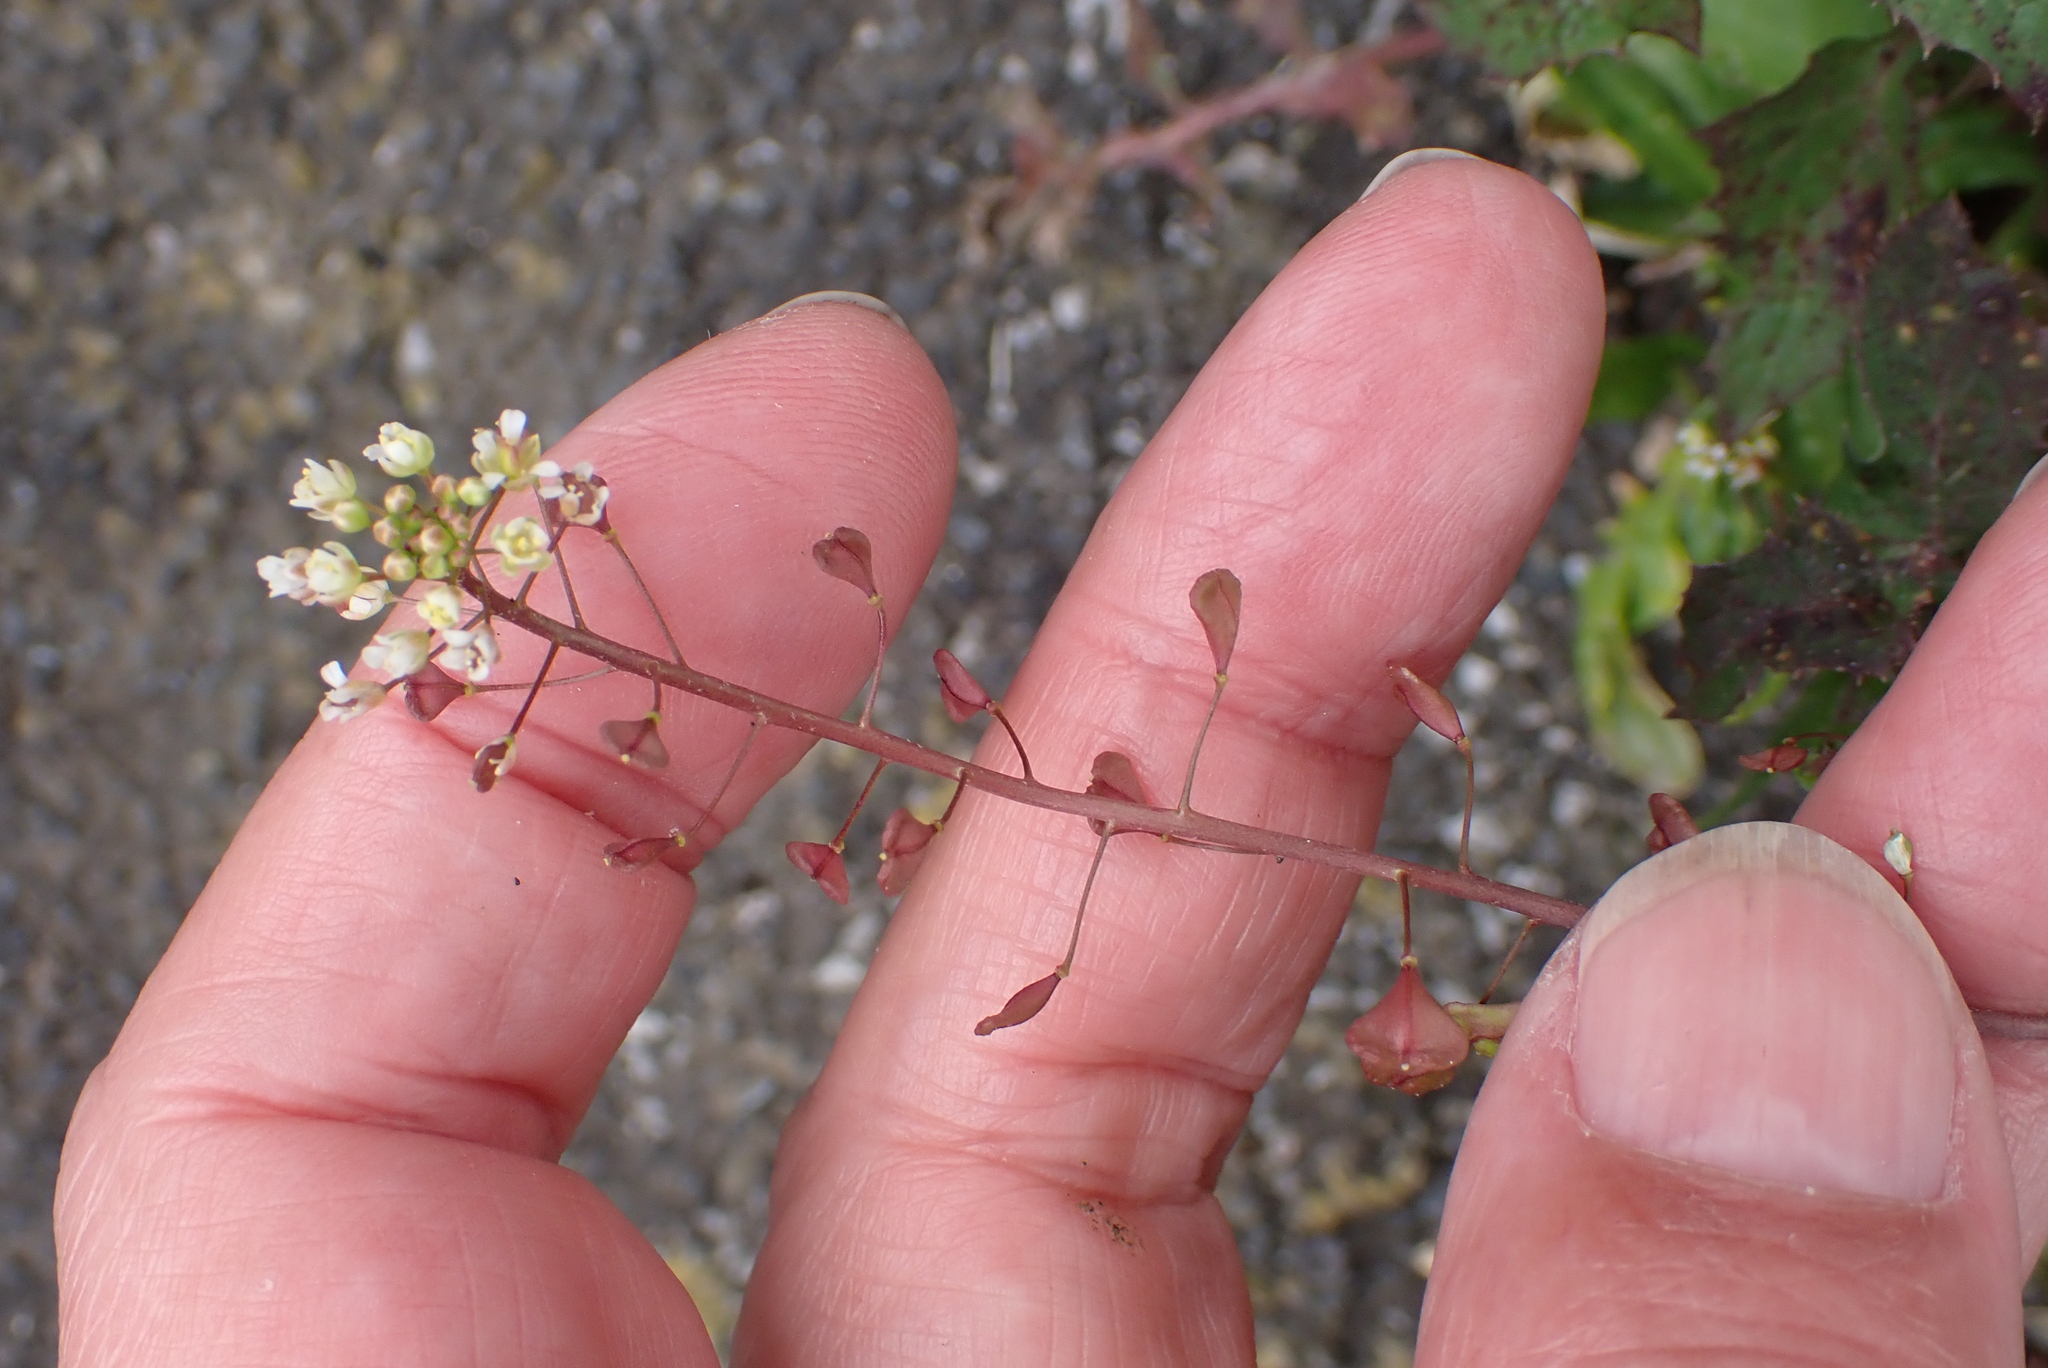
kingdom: Plantae
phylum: Tracheophyta
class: Magnoliopsida
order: Brassicales
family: Brassicaceae
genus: Capsella
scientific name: Capsella bursa-pastoris
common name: Shepherd's purse
